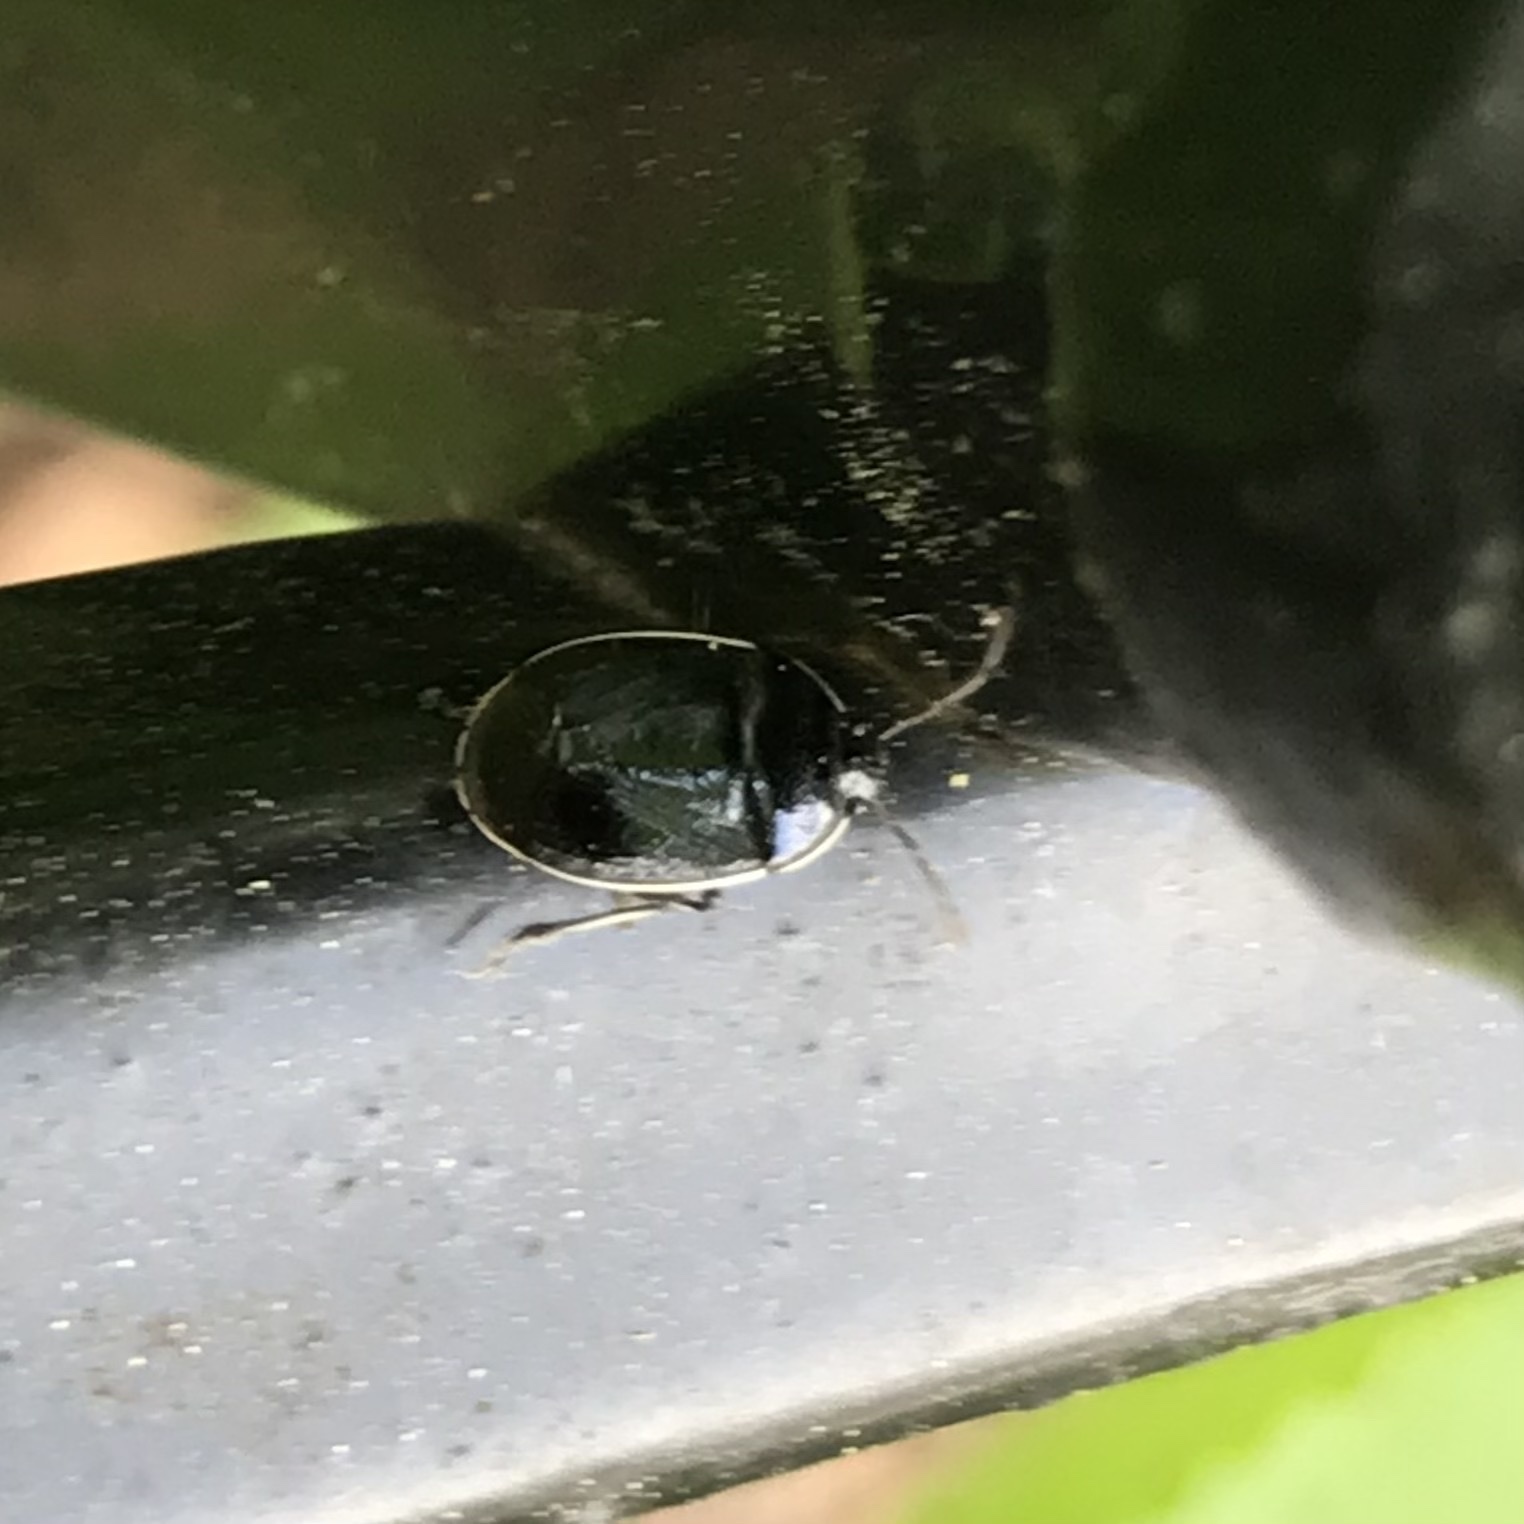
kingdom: Animalia
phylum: Arthropoda
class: Insecta
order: Hemiptera
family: Cydnidae
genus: Sehirus
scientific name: Sehirus cinctus
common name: White-margined burrower bug
